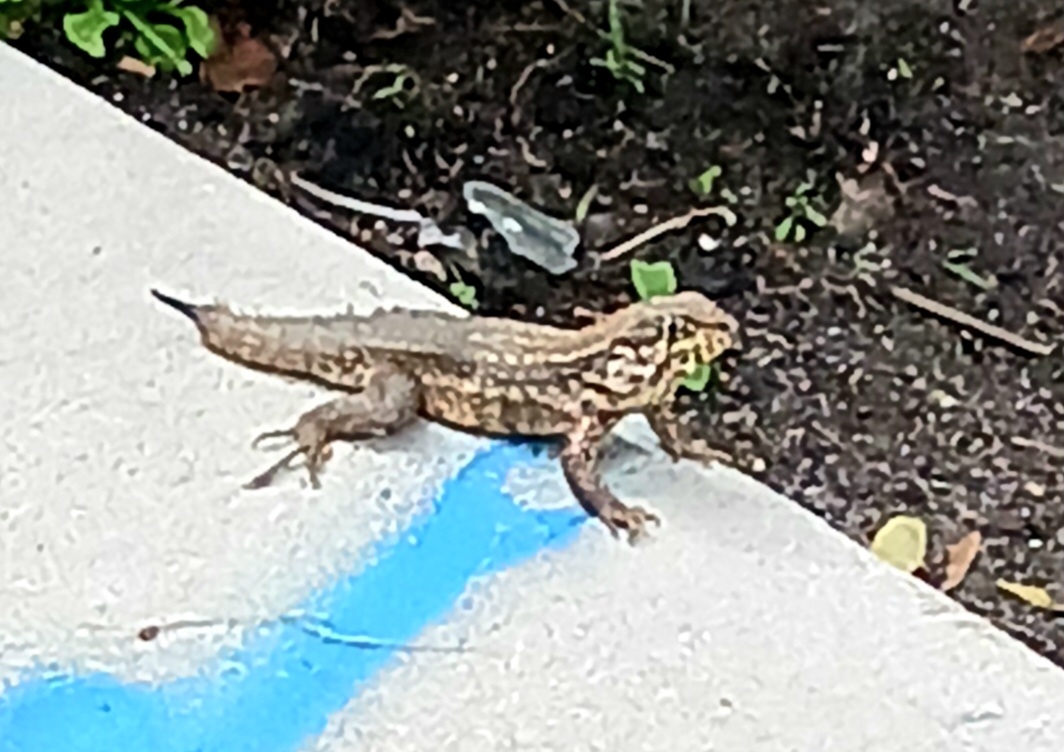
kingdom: Animalia
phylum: Chordata
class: Squamata
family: Leiocephalidae
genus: Leiocephalus
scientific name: Leiocephalus carinatus
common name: Northern curly-tailed lizard
